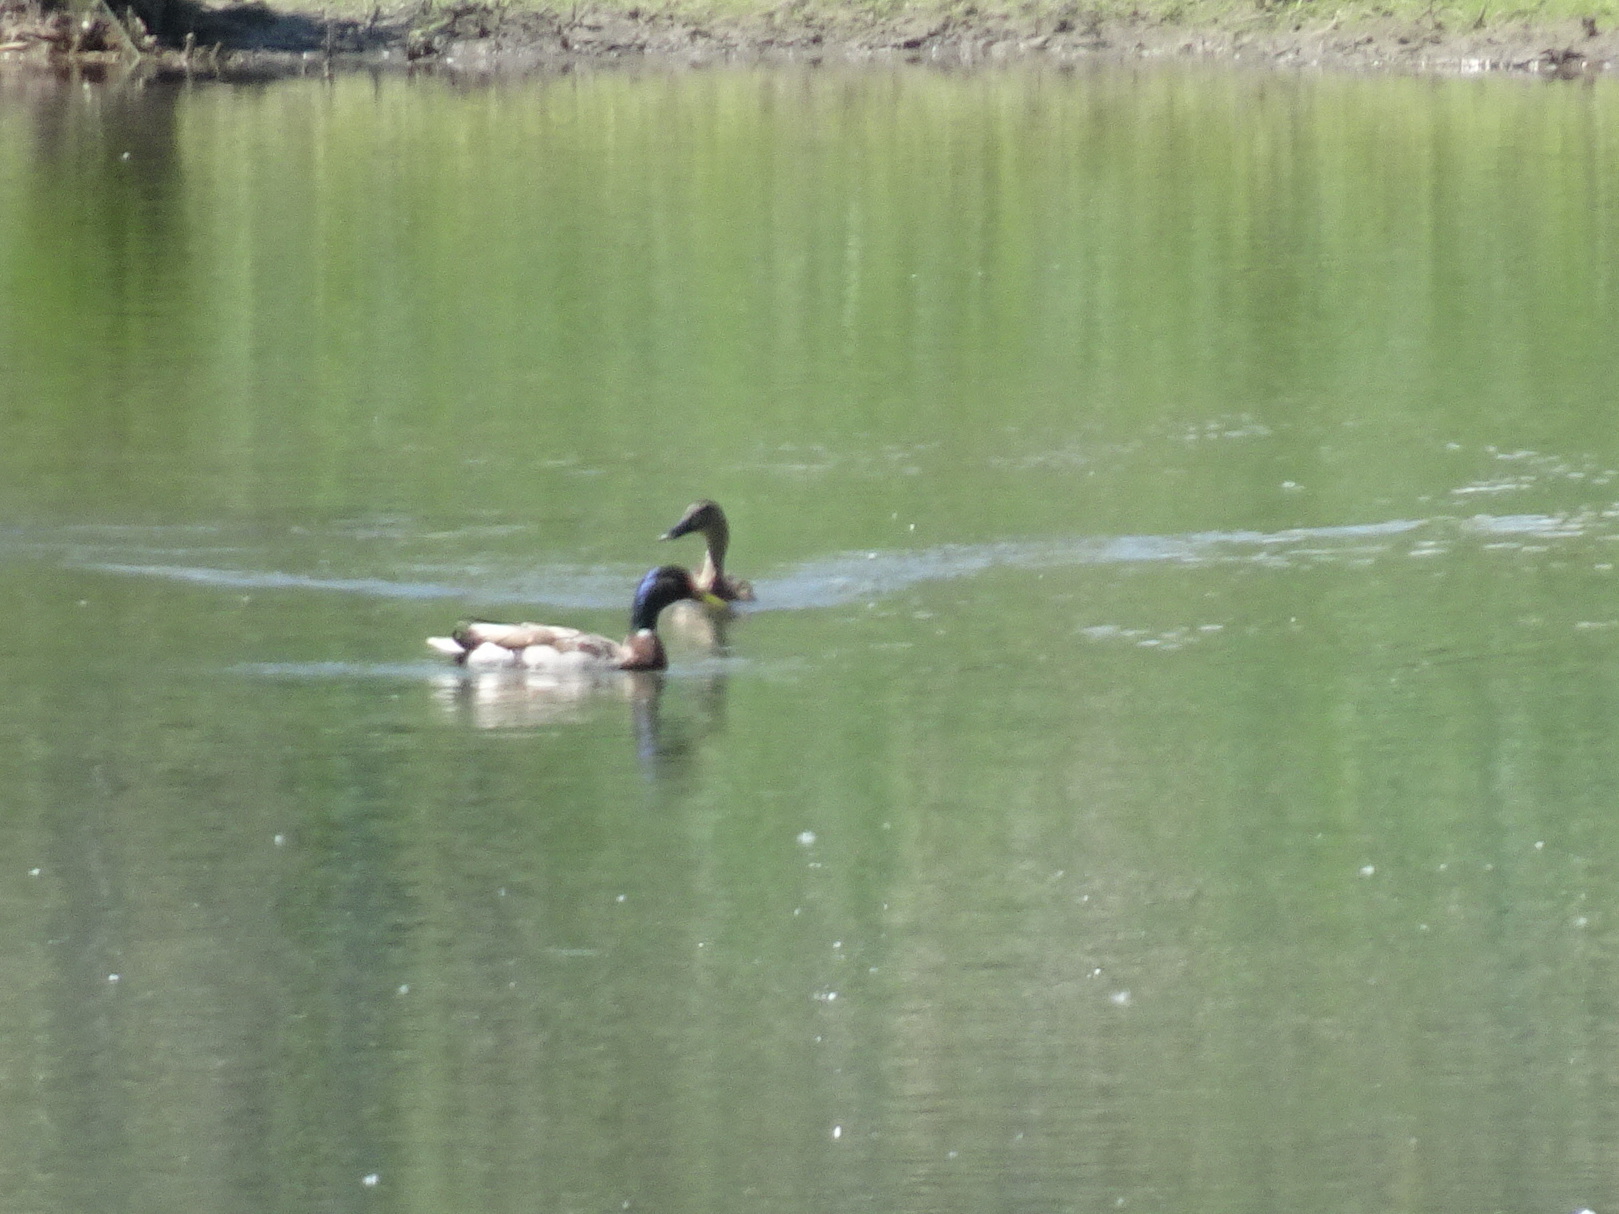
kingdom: Animalia
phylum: Chordata
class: Aves
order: Anseriformes
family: Anatidae
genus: Anas
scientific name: Anas platyrhynchos
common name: Mallard
